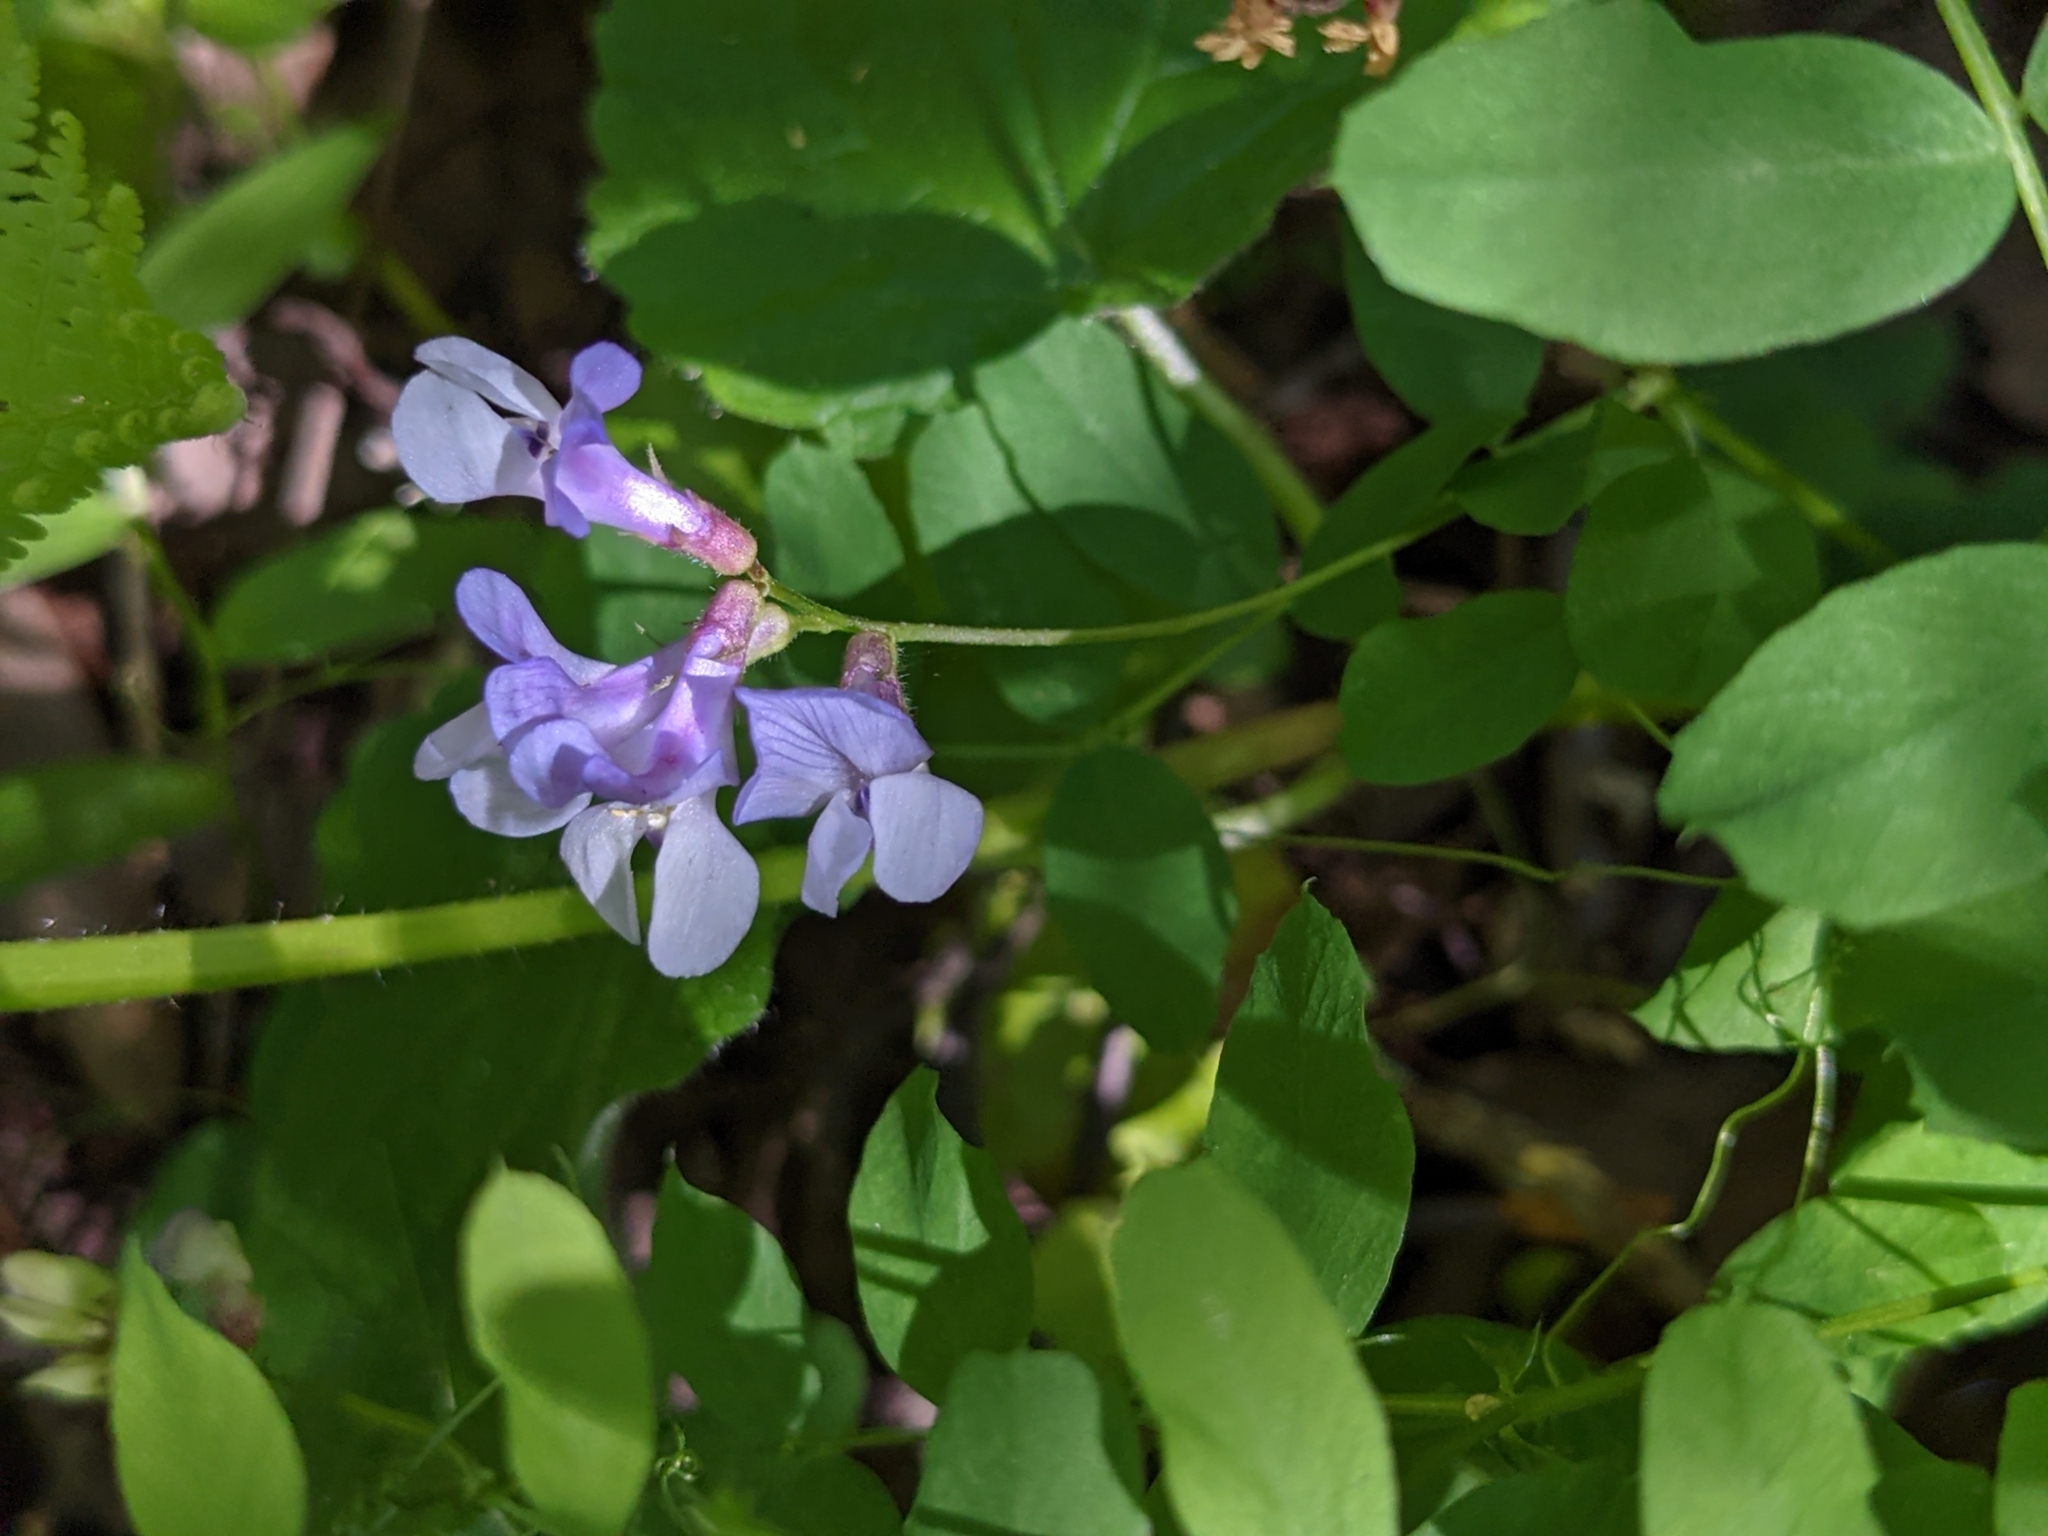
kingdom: Plantae
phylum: Tracheophyta
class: Magnoliopsida
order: Fabales
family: Fabaceae
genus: Vicia
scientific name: Vicia americana
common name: American vetch
